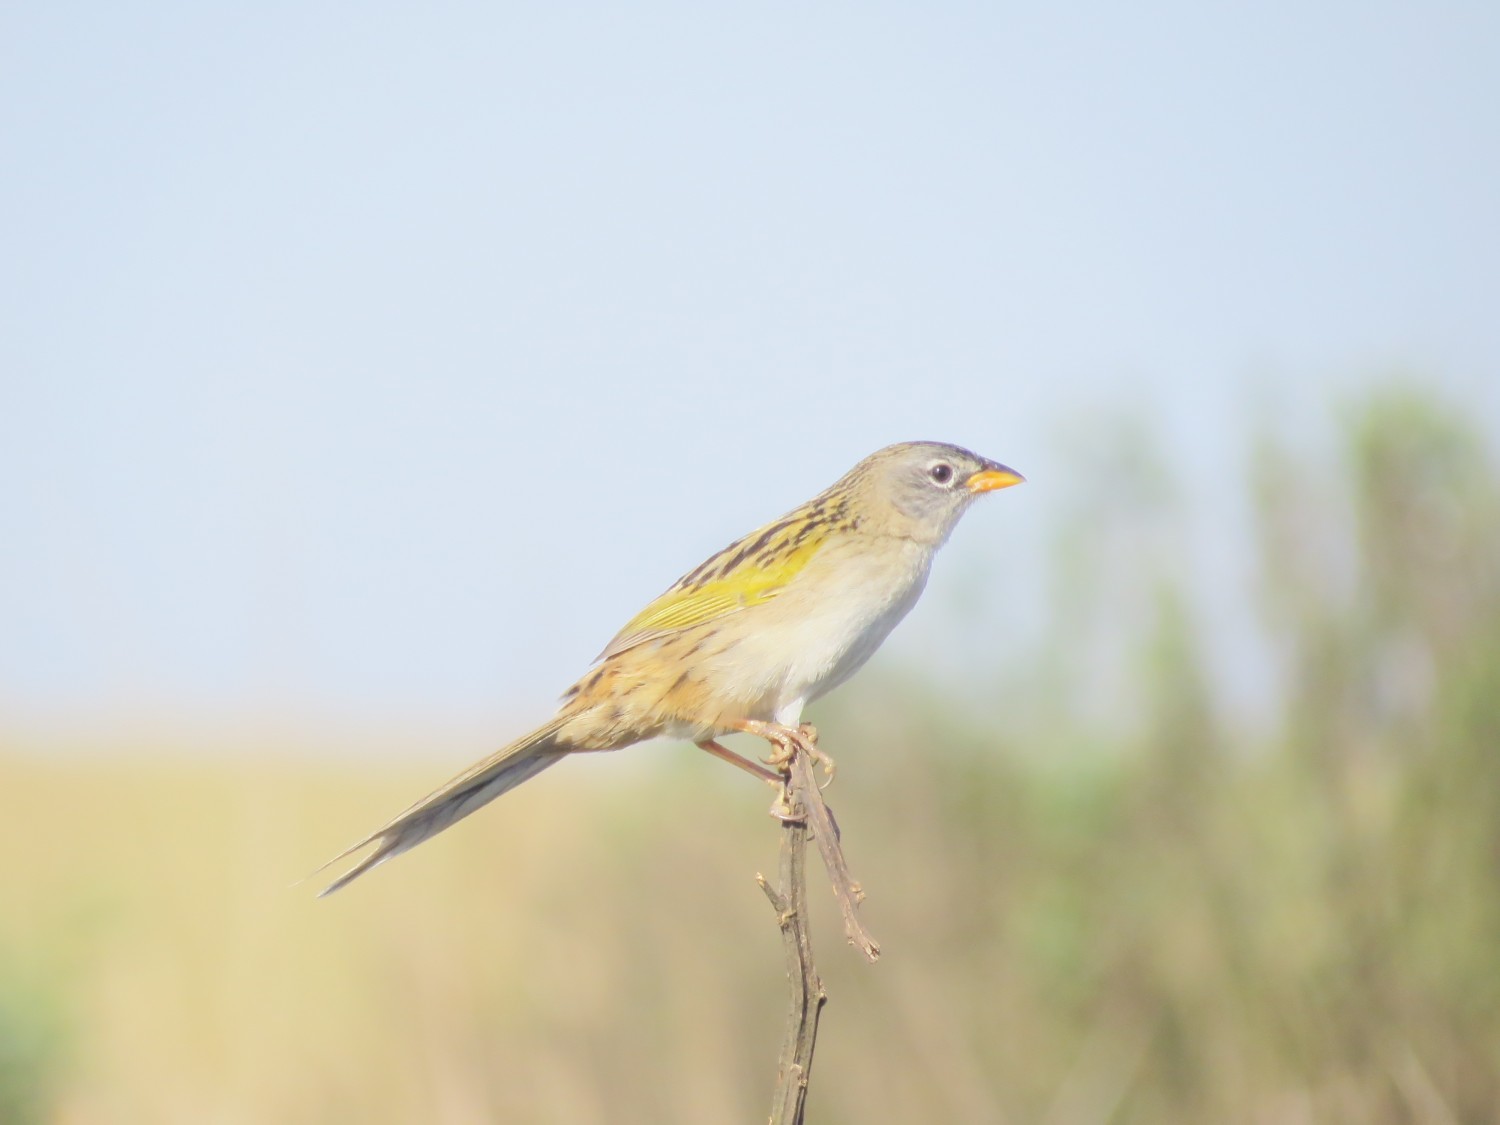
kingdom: Animalia
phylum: Chordata
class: Aves
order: Passeriformes
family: Thraupidae
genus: Emberizoides
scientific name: Emberizoides ypiranganus
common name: Lesser grass finch
